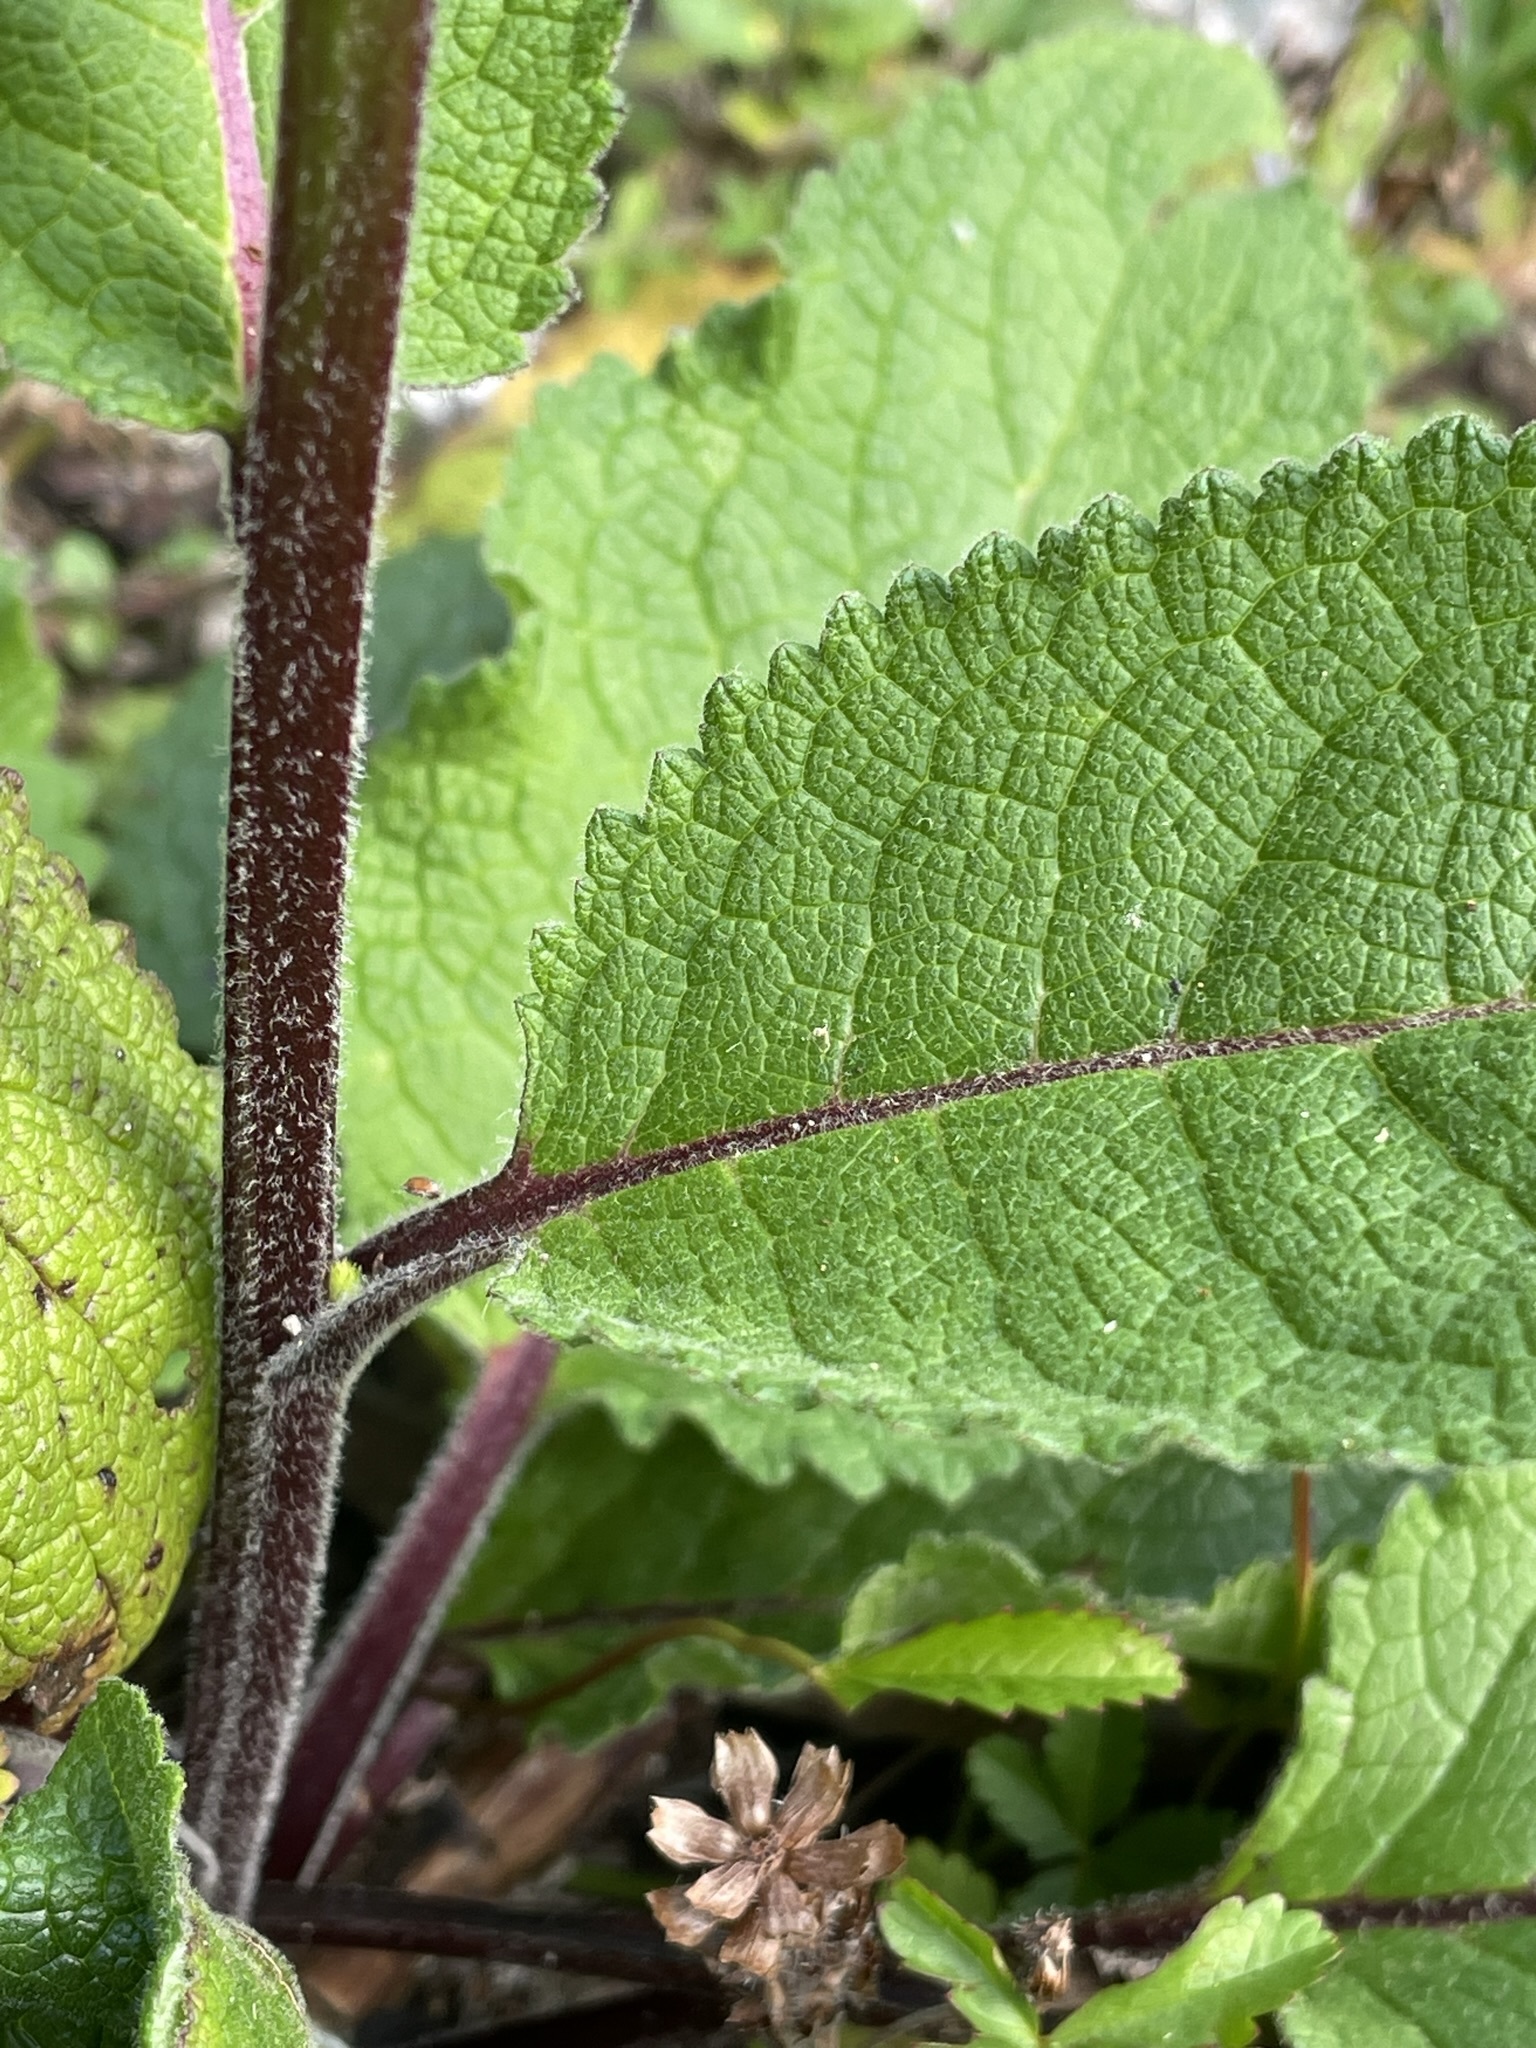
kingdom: Plantae
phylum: Tracheophyta
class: Magnoliopsida
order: Lamiales
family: Scrophulariaceae
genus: Verbascum
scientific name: Verbascum nigrum
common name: Dark mullein
